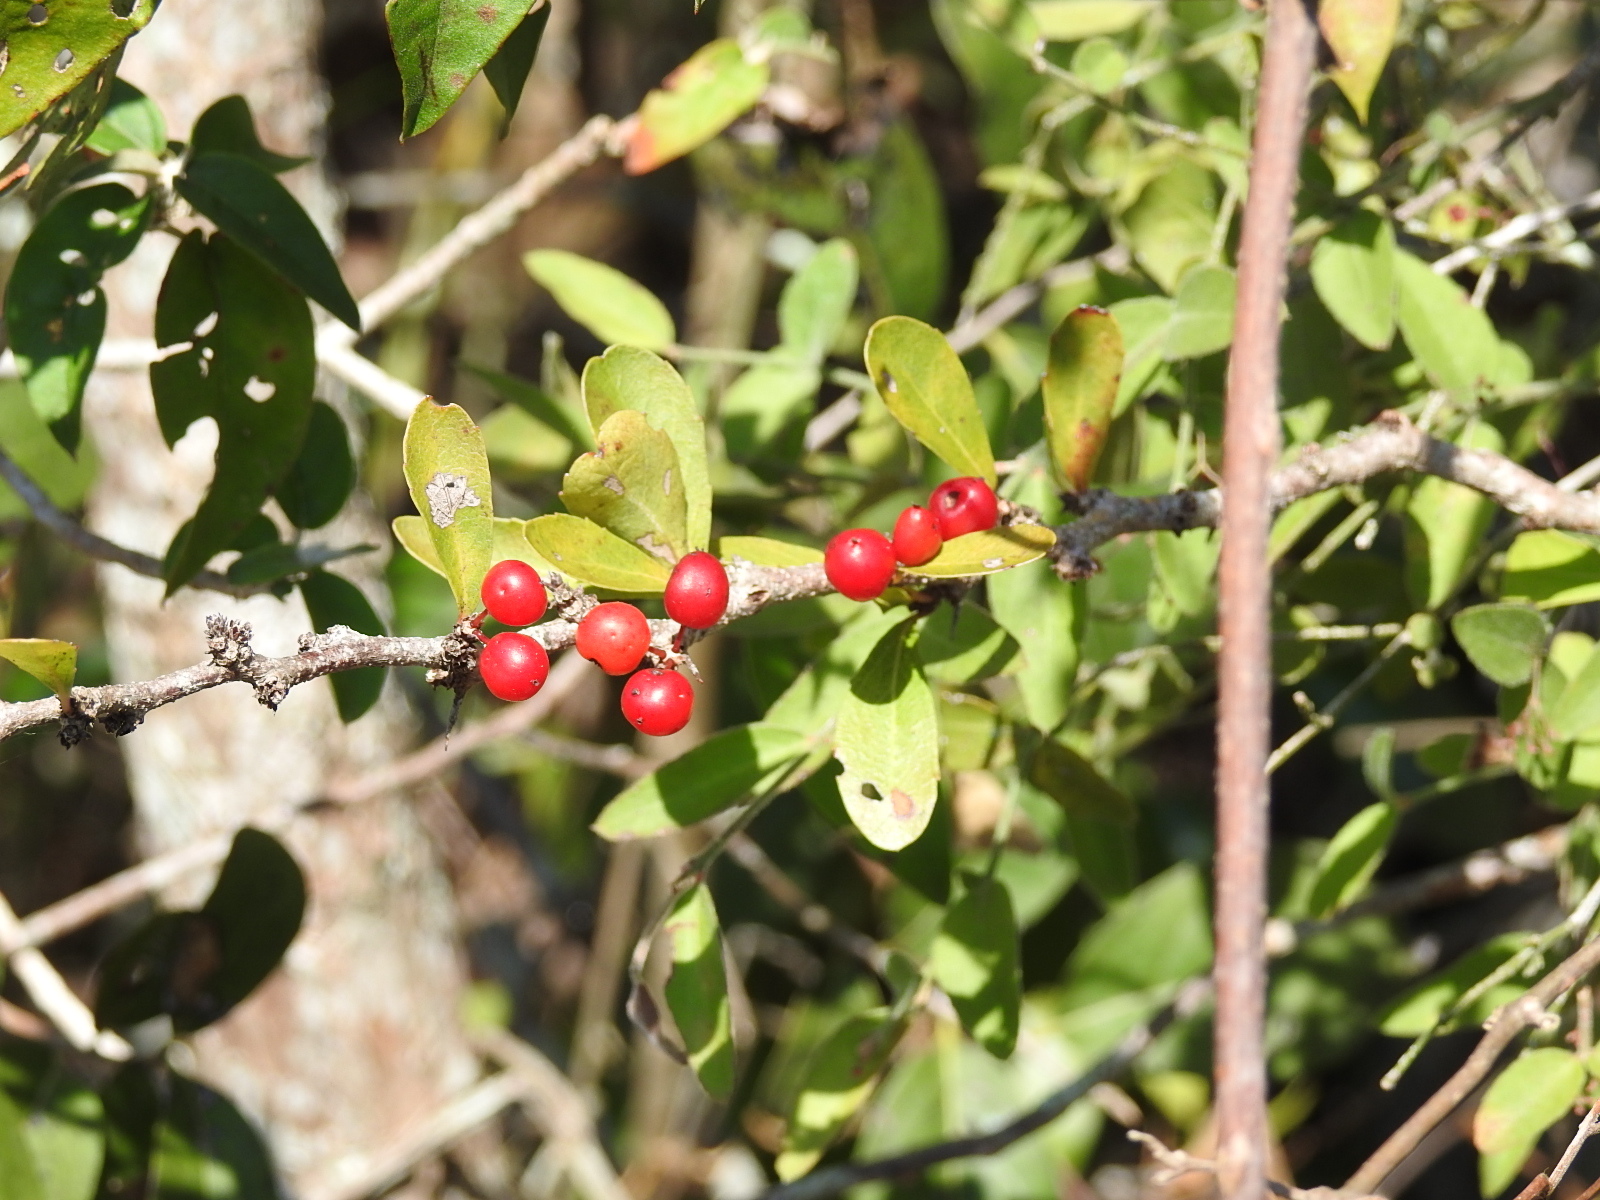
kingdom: Plantae
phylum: Tracheophyta
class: Magnoliopsida
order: Santalales
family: Ximeniaceae
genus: Ximenia
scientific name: Ximenia parviflora
